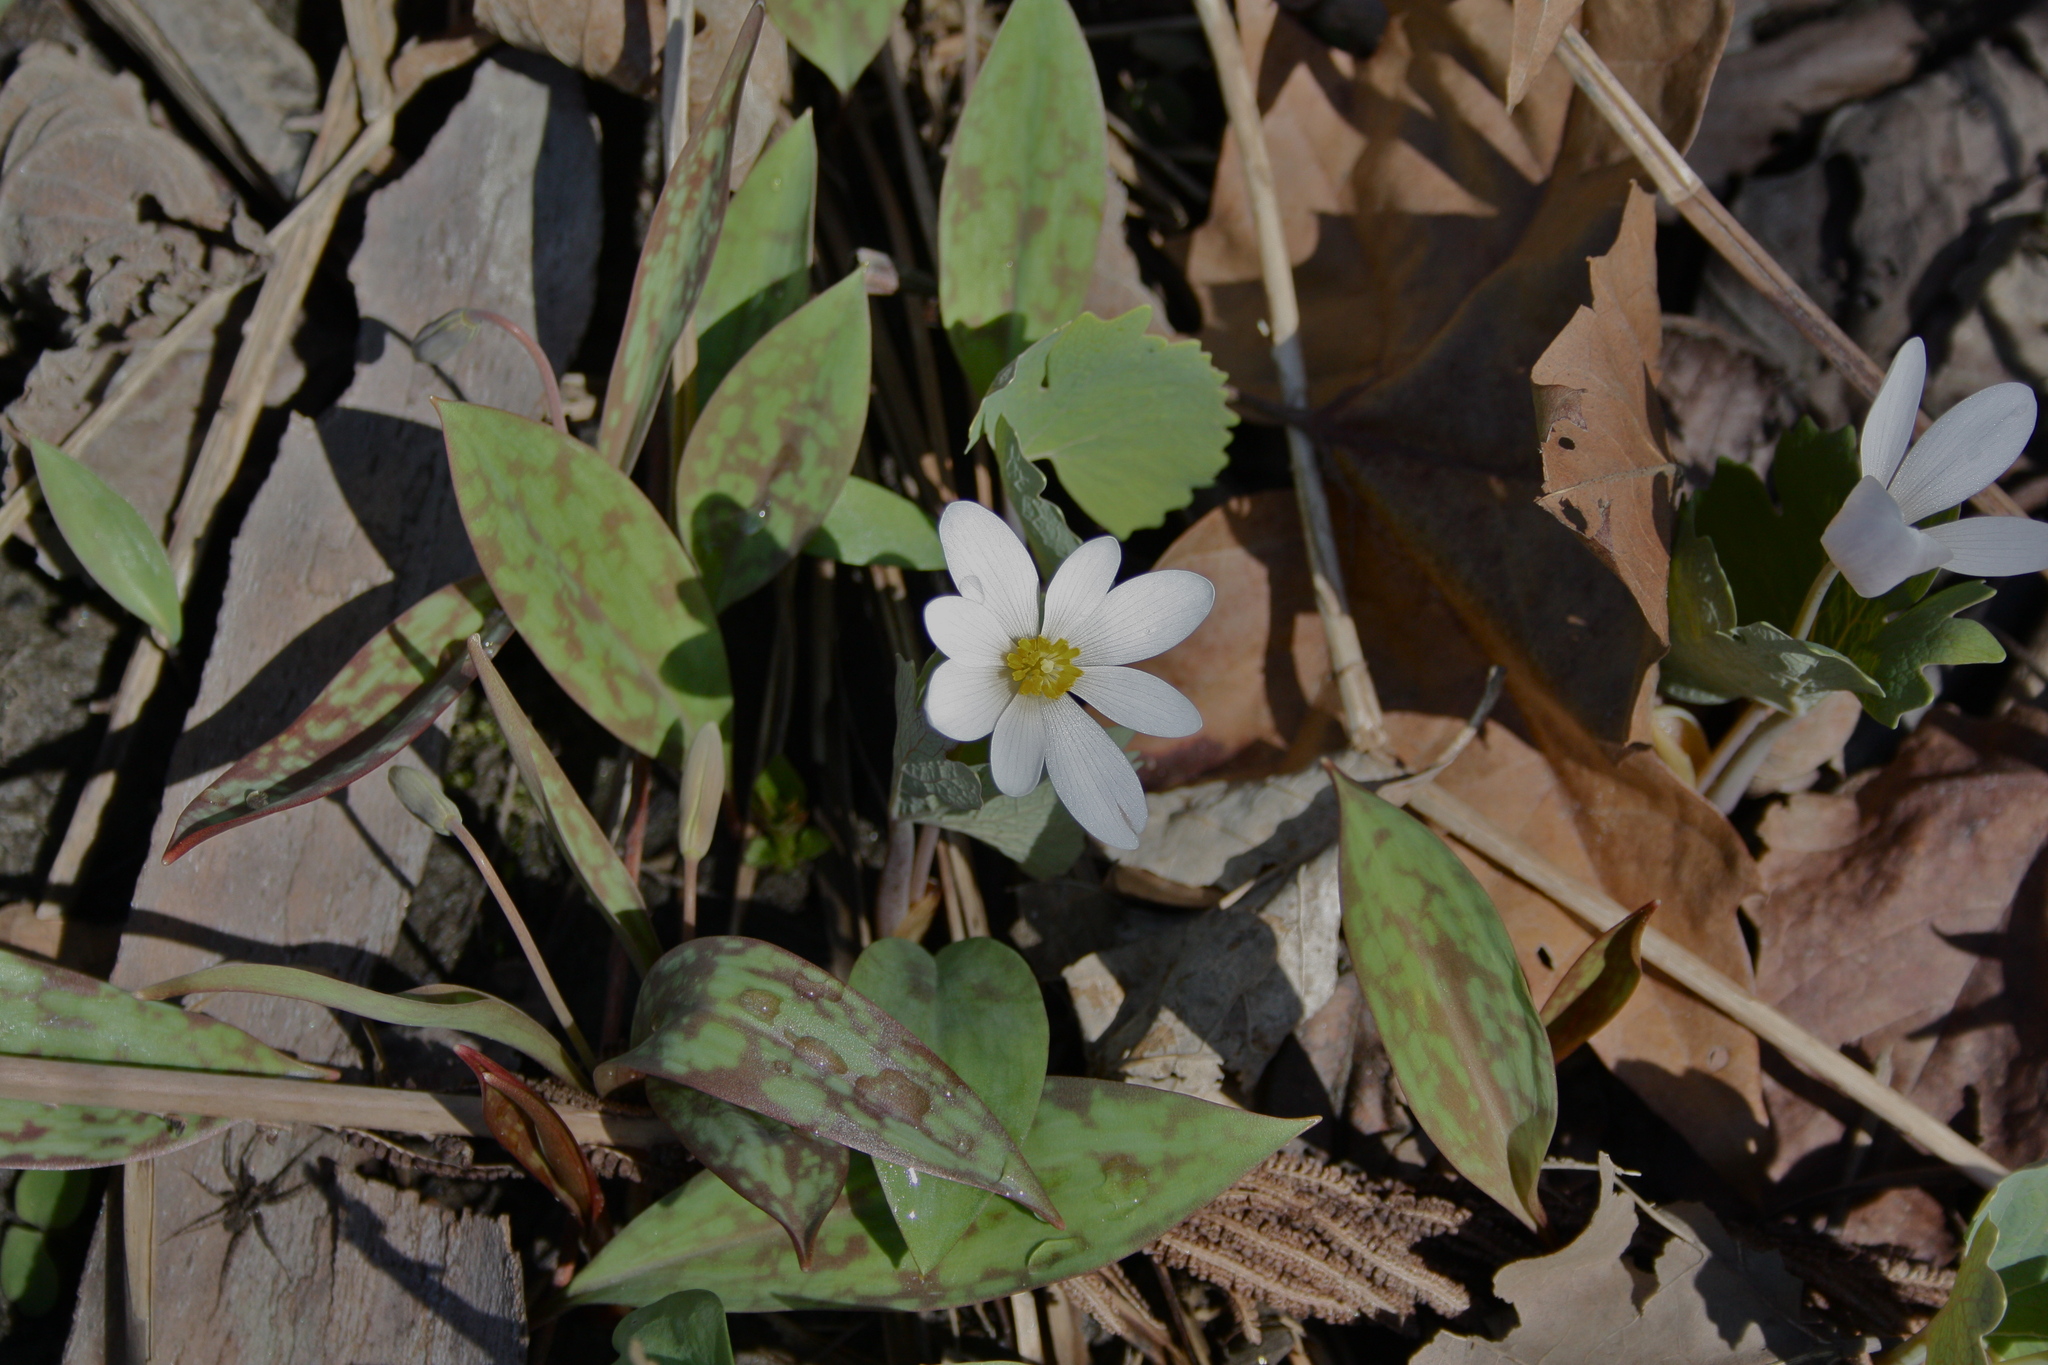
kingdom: Plantae
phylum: Tracheophyta
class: Magnoliopsida
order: Ranunculales
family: Papaveraceae
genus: Sanguinaria
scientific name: Sanguinaria canadensis
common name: Bloodroot
